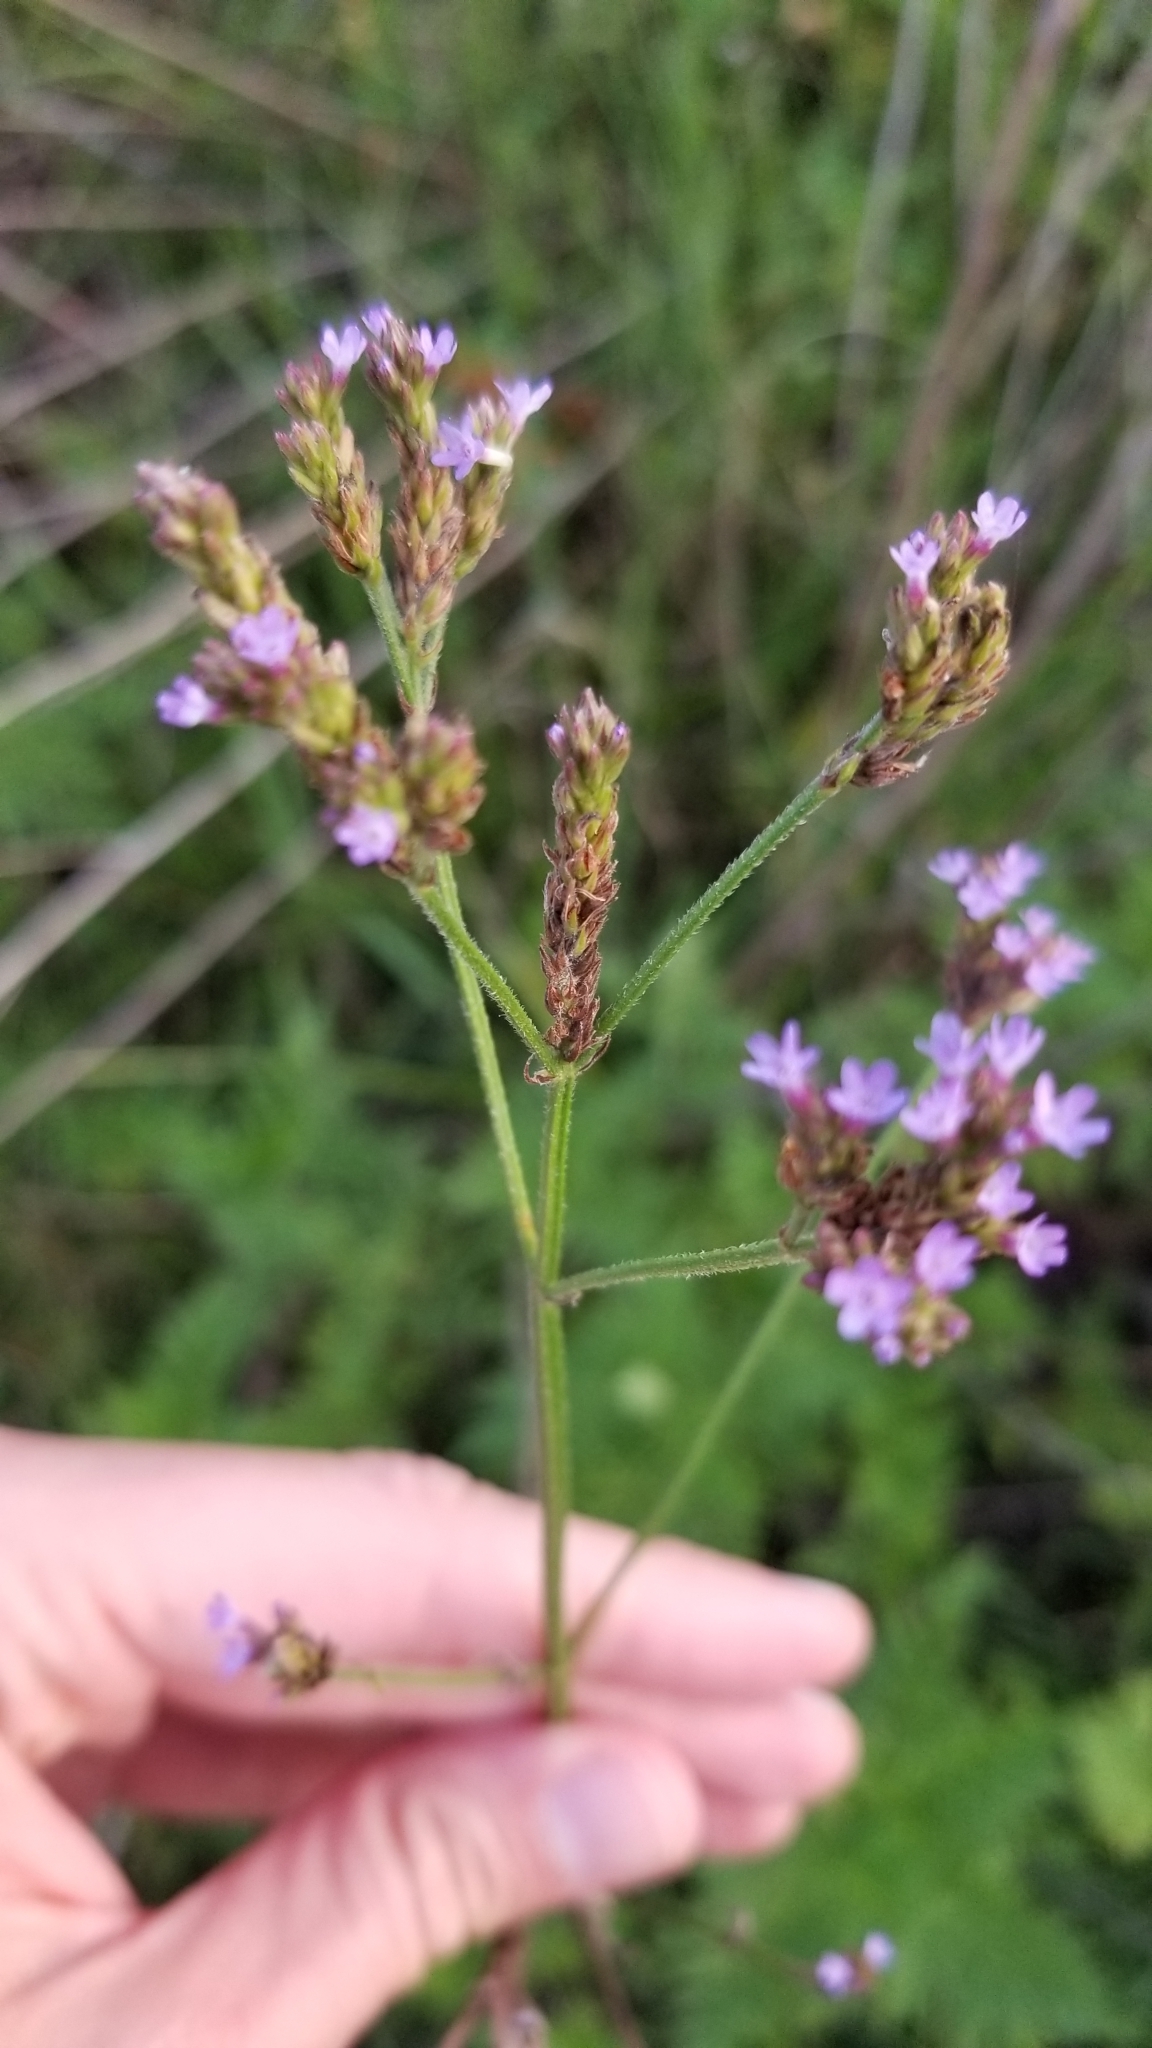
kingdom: Plantae
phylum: Tracheophyta
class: Magnoliopsida
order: Lamiales
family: Verbenaceae
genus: Verbena
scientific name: Verbena brasiliensis
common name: Brazilian vervain
